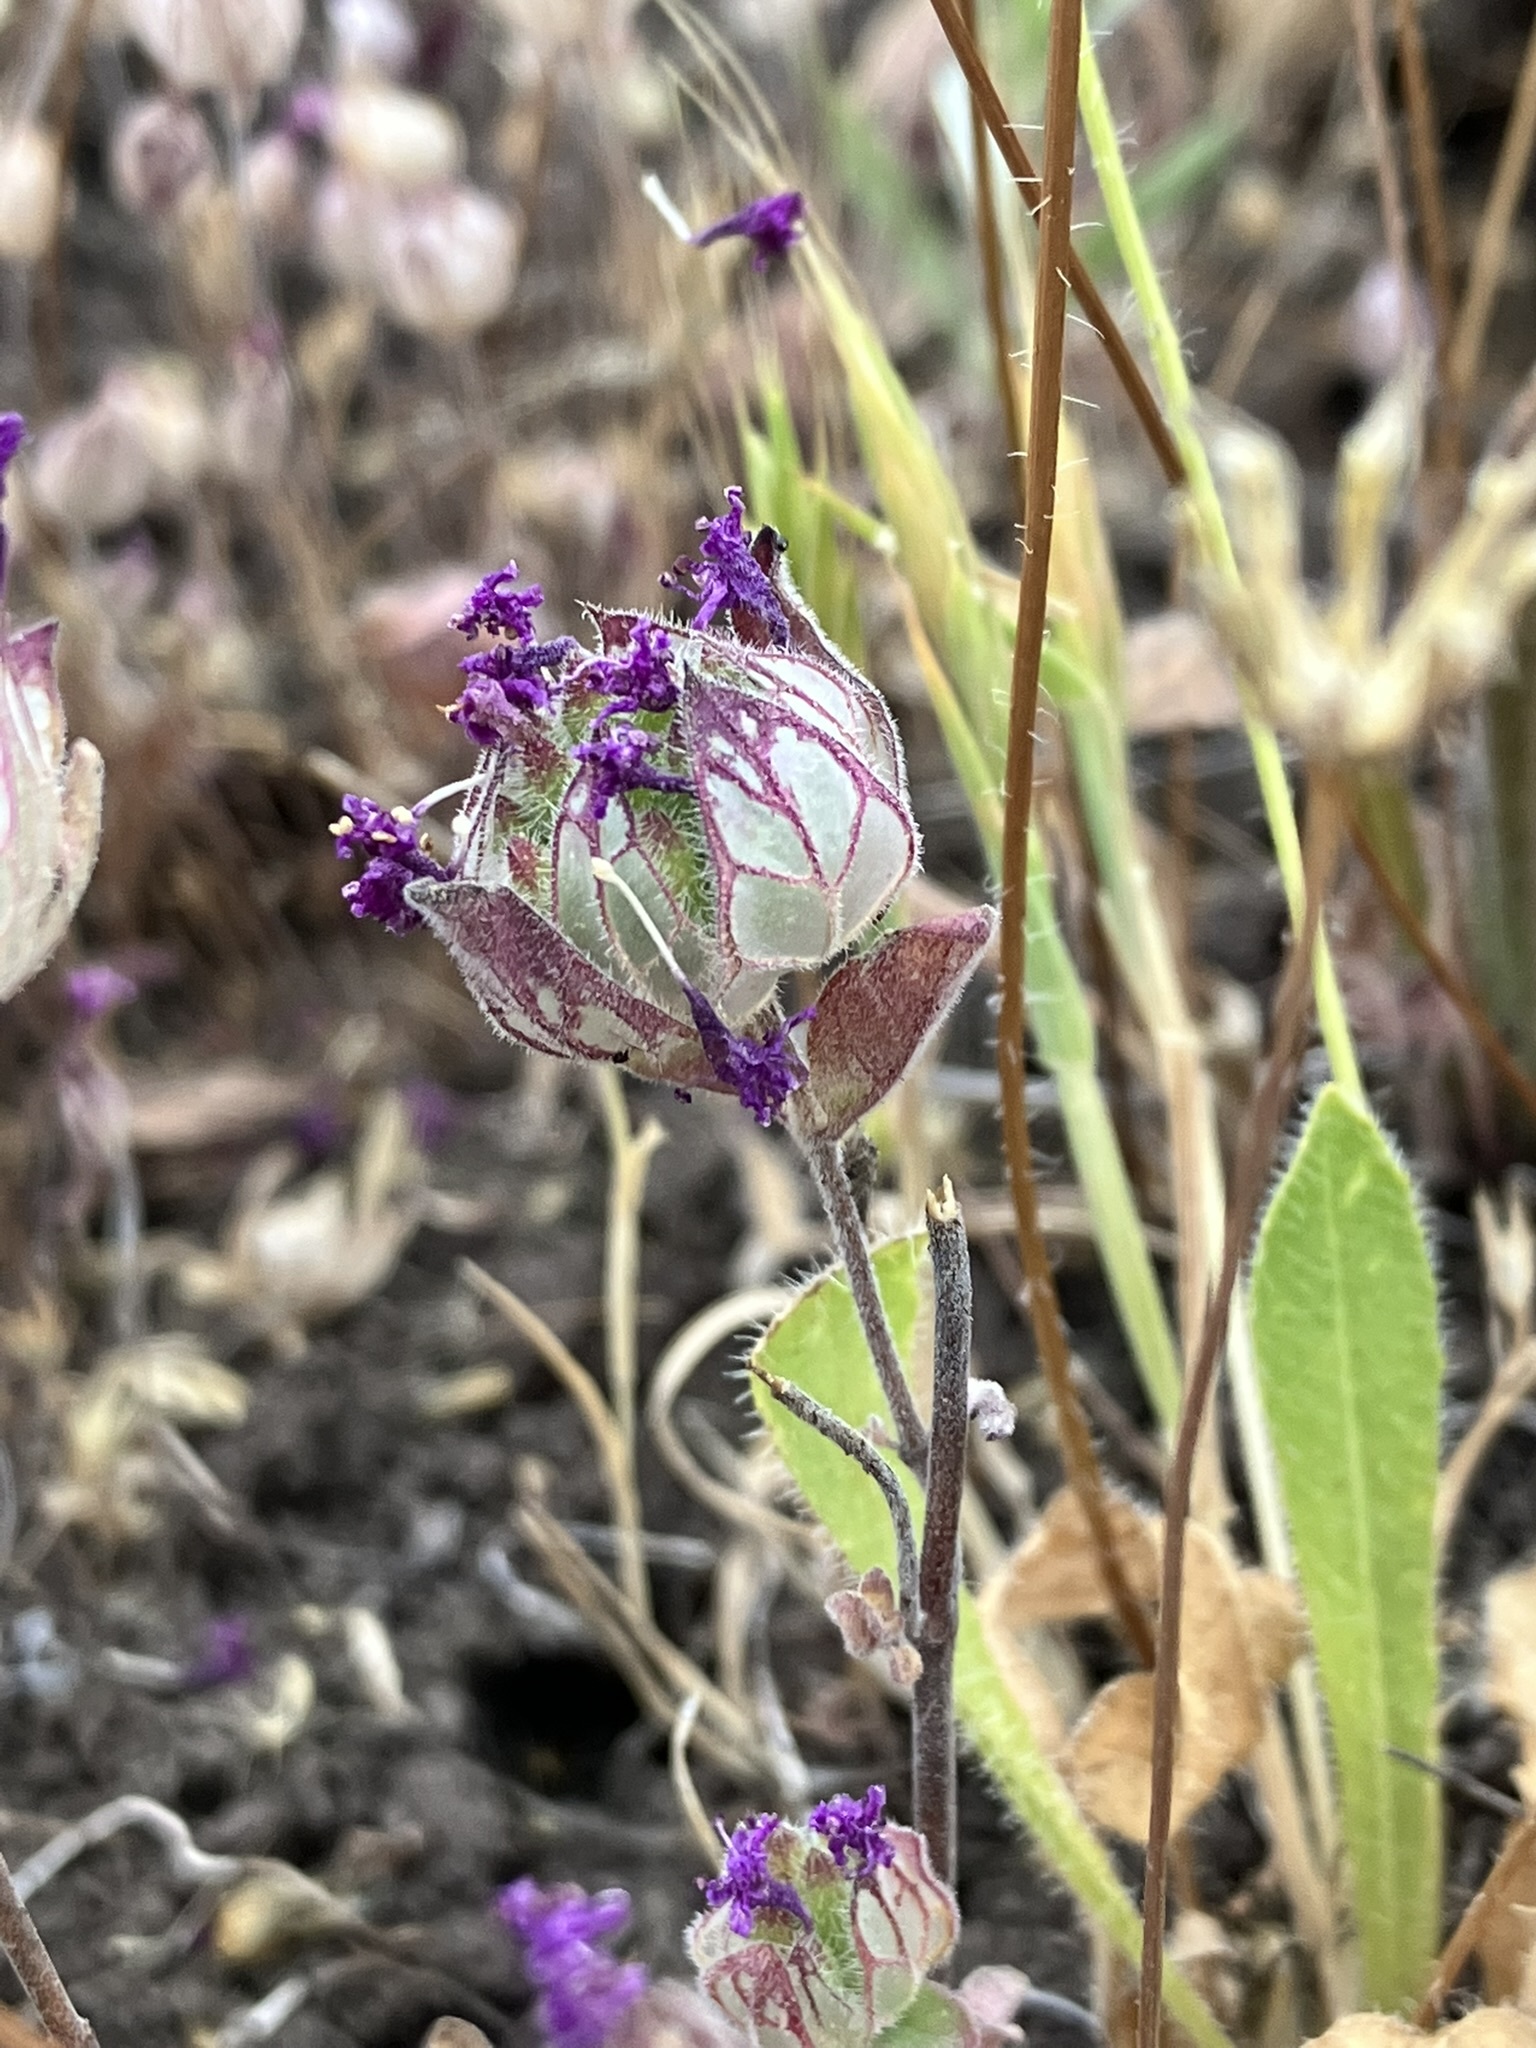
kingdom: Plantae
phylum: Tracheophyta
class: Magnoliopsida
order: Lamiales
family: Lamiaceae
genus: Monardella
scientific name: Monardella venosa
